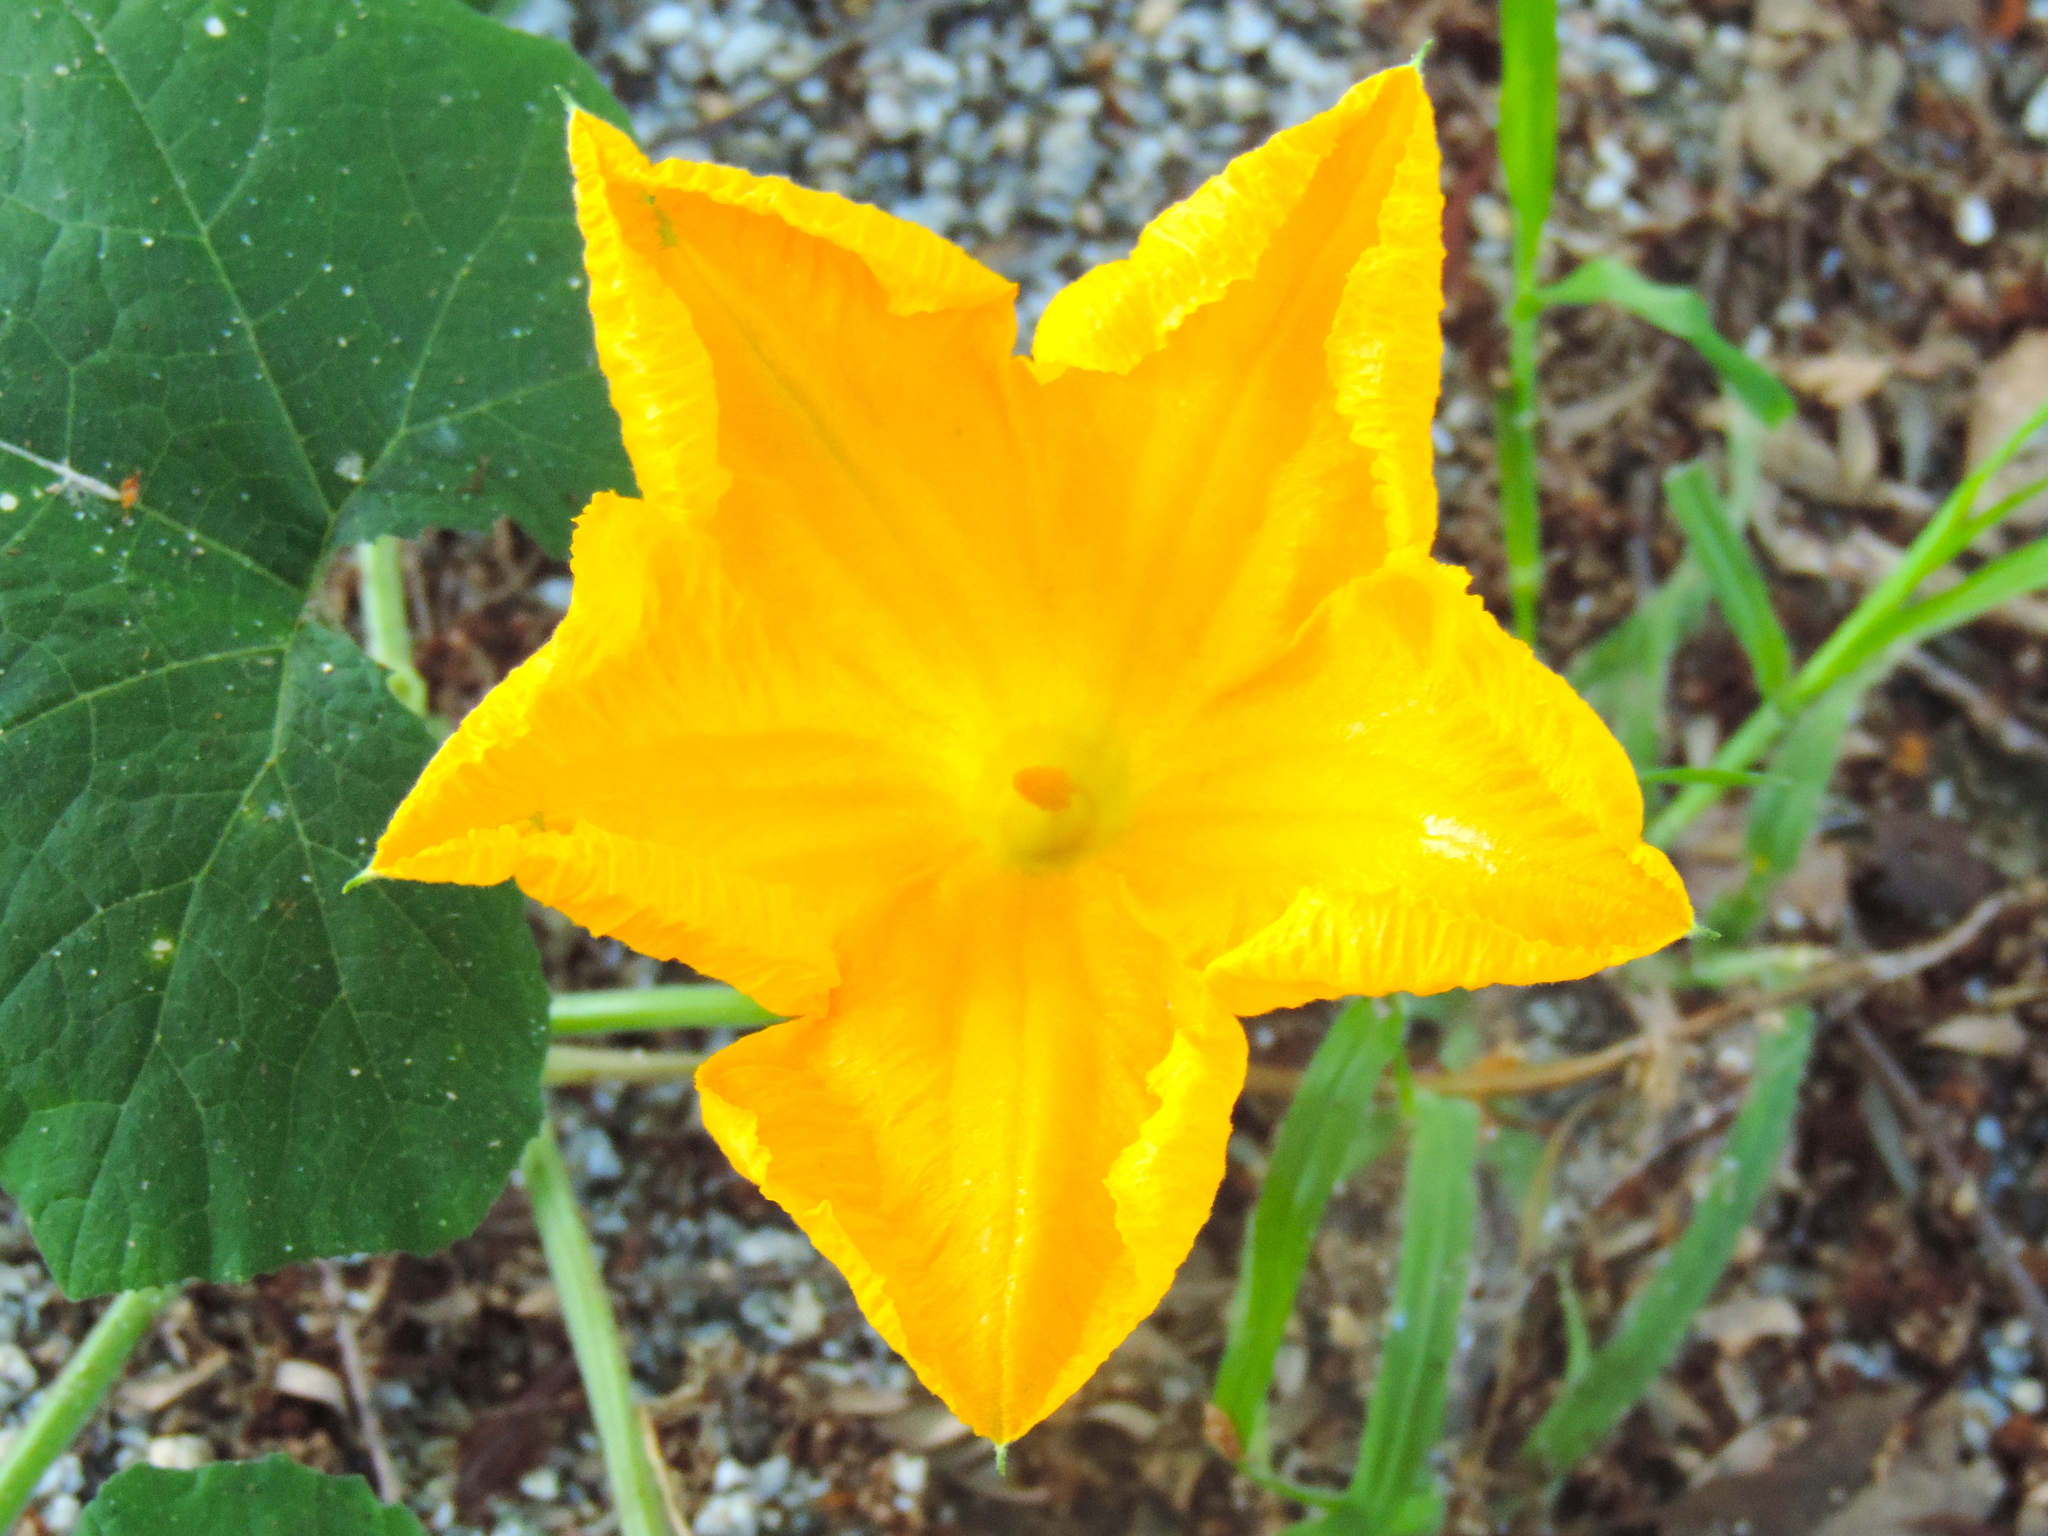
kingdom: Plantae
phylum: Tracheophyta
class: Magnoliopsida
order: Cucurbitales
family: Cucurbitaceae
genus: Cucurbita
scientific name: Cucurbita ficifolia
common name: Figleaf gourd
